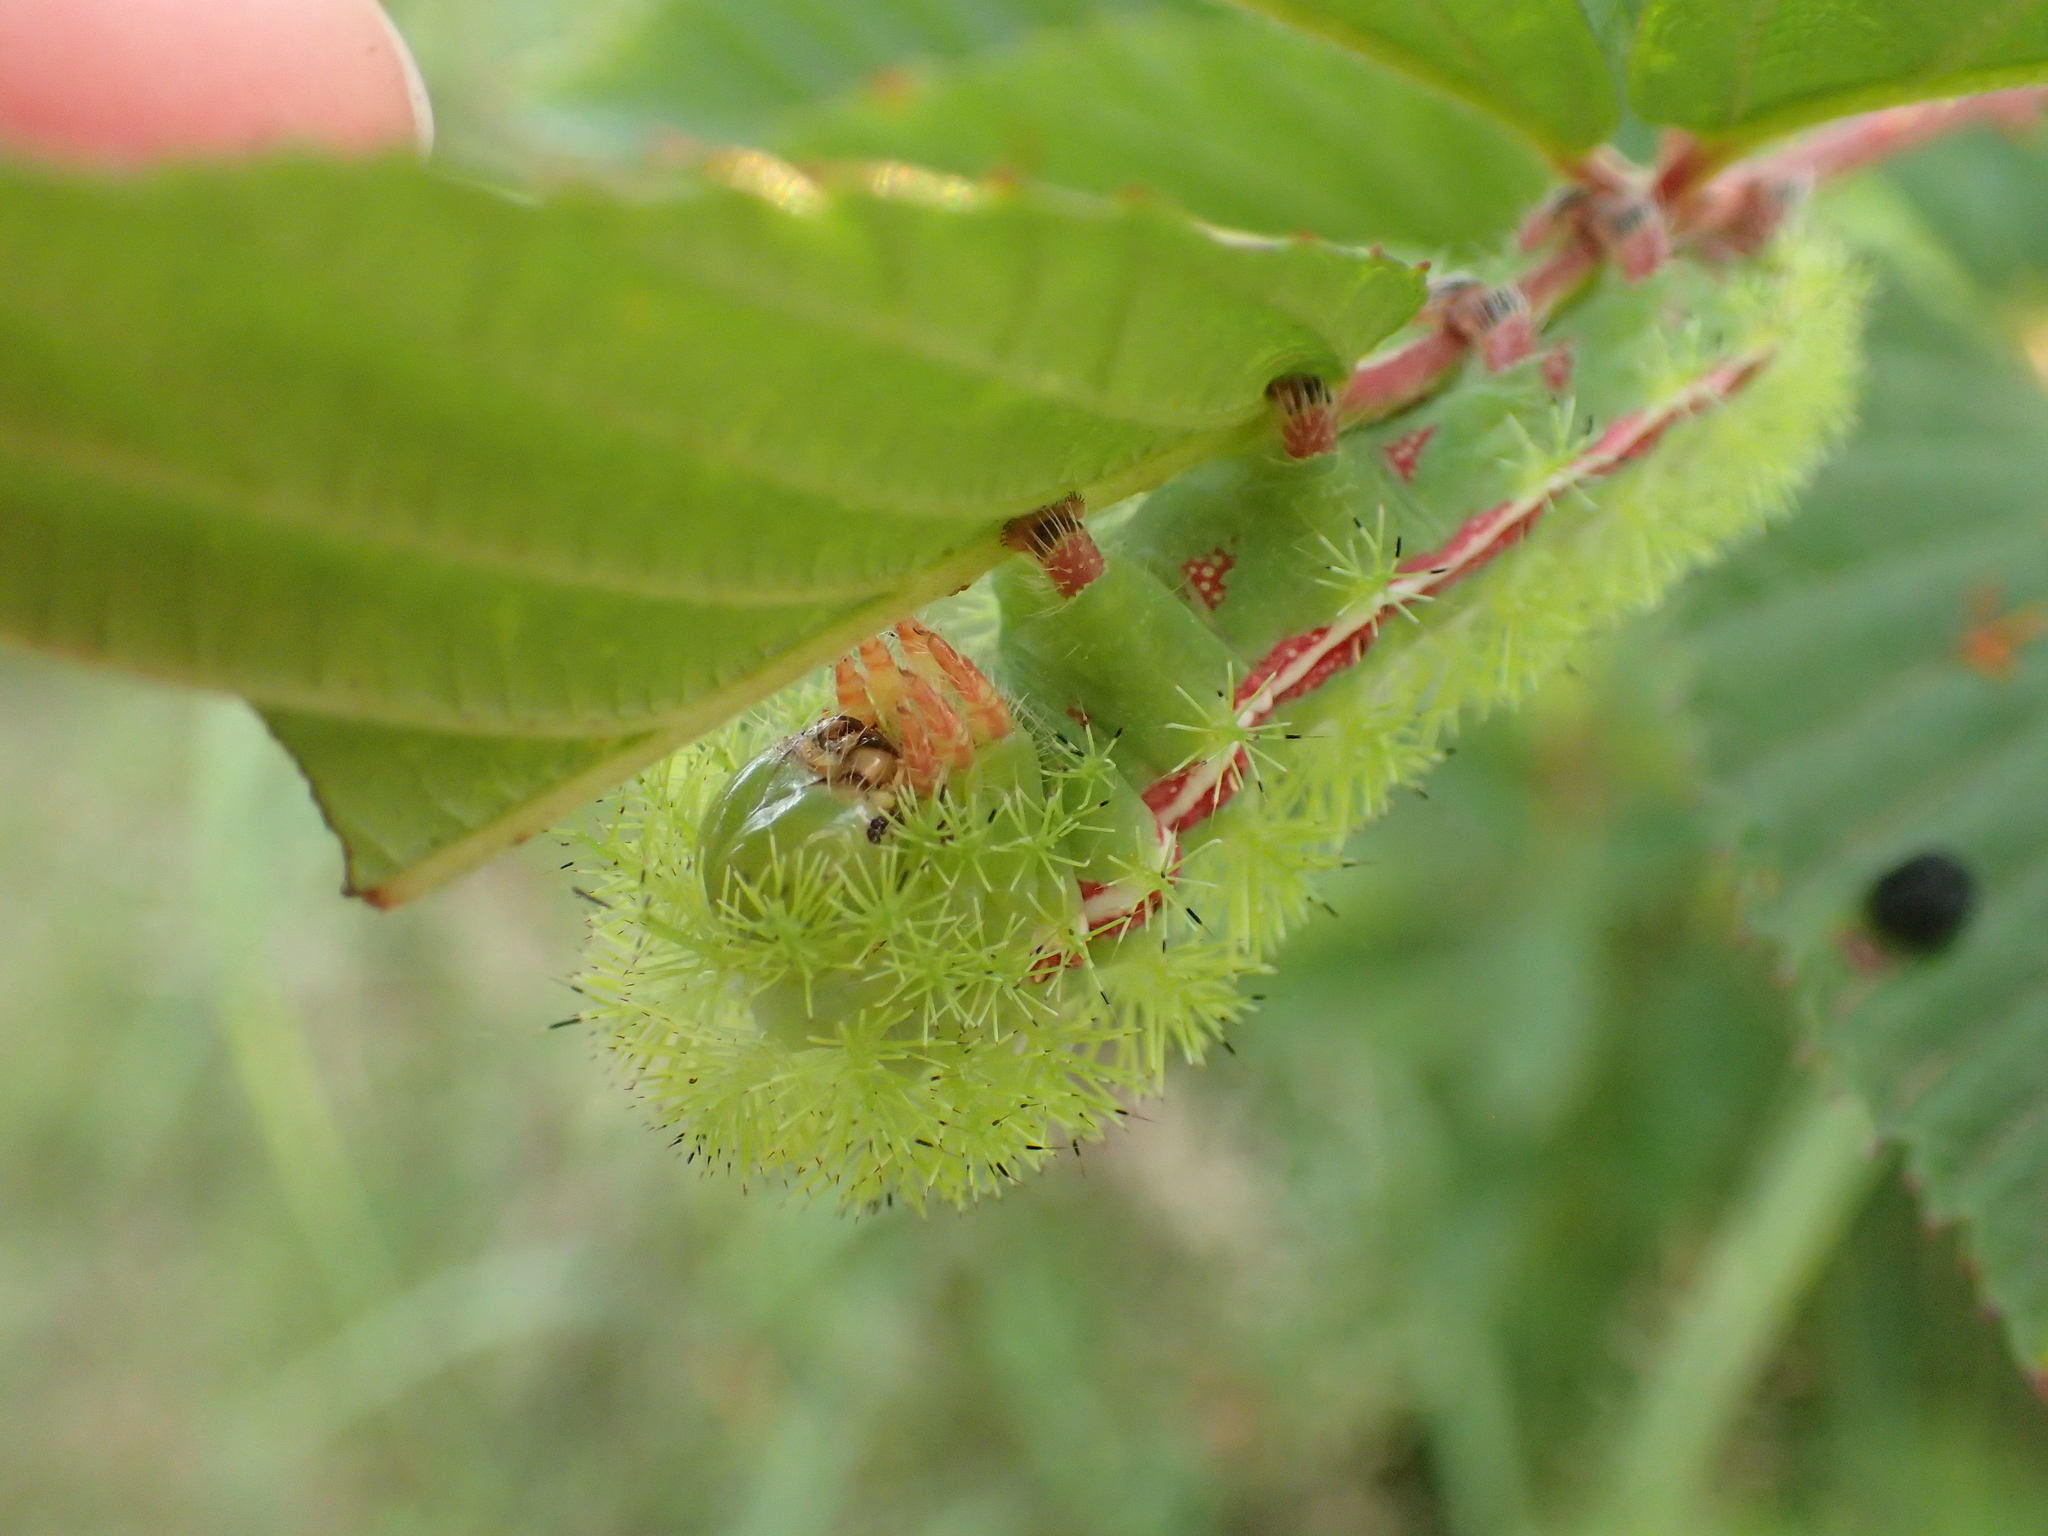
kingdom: Animalia
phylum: Arthropoda
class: Insecta
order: Lepidoptera
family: Saturniidae
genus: Automeris
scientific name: Automeris io
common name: Io moth
